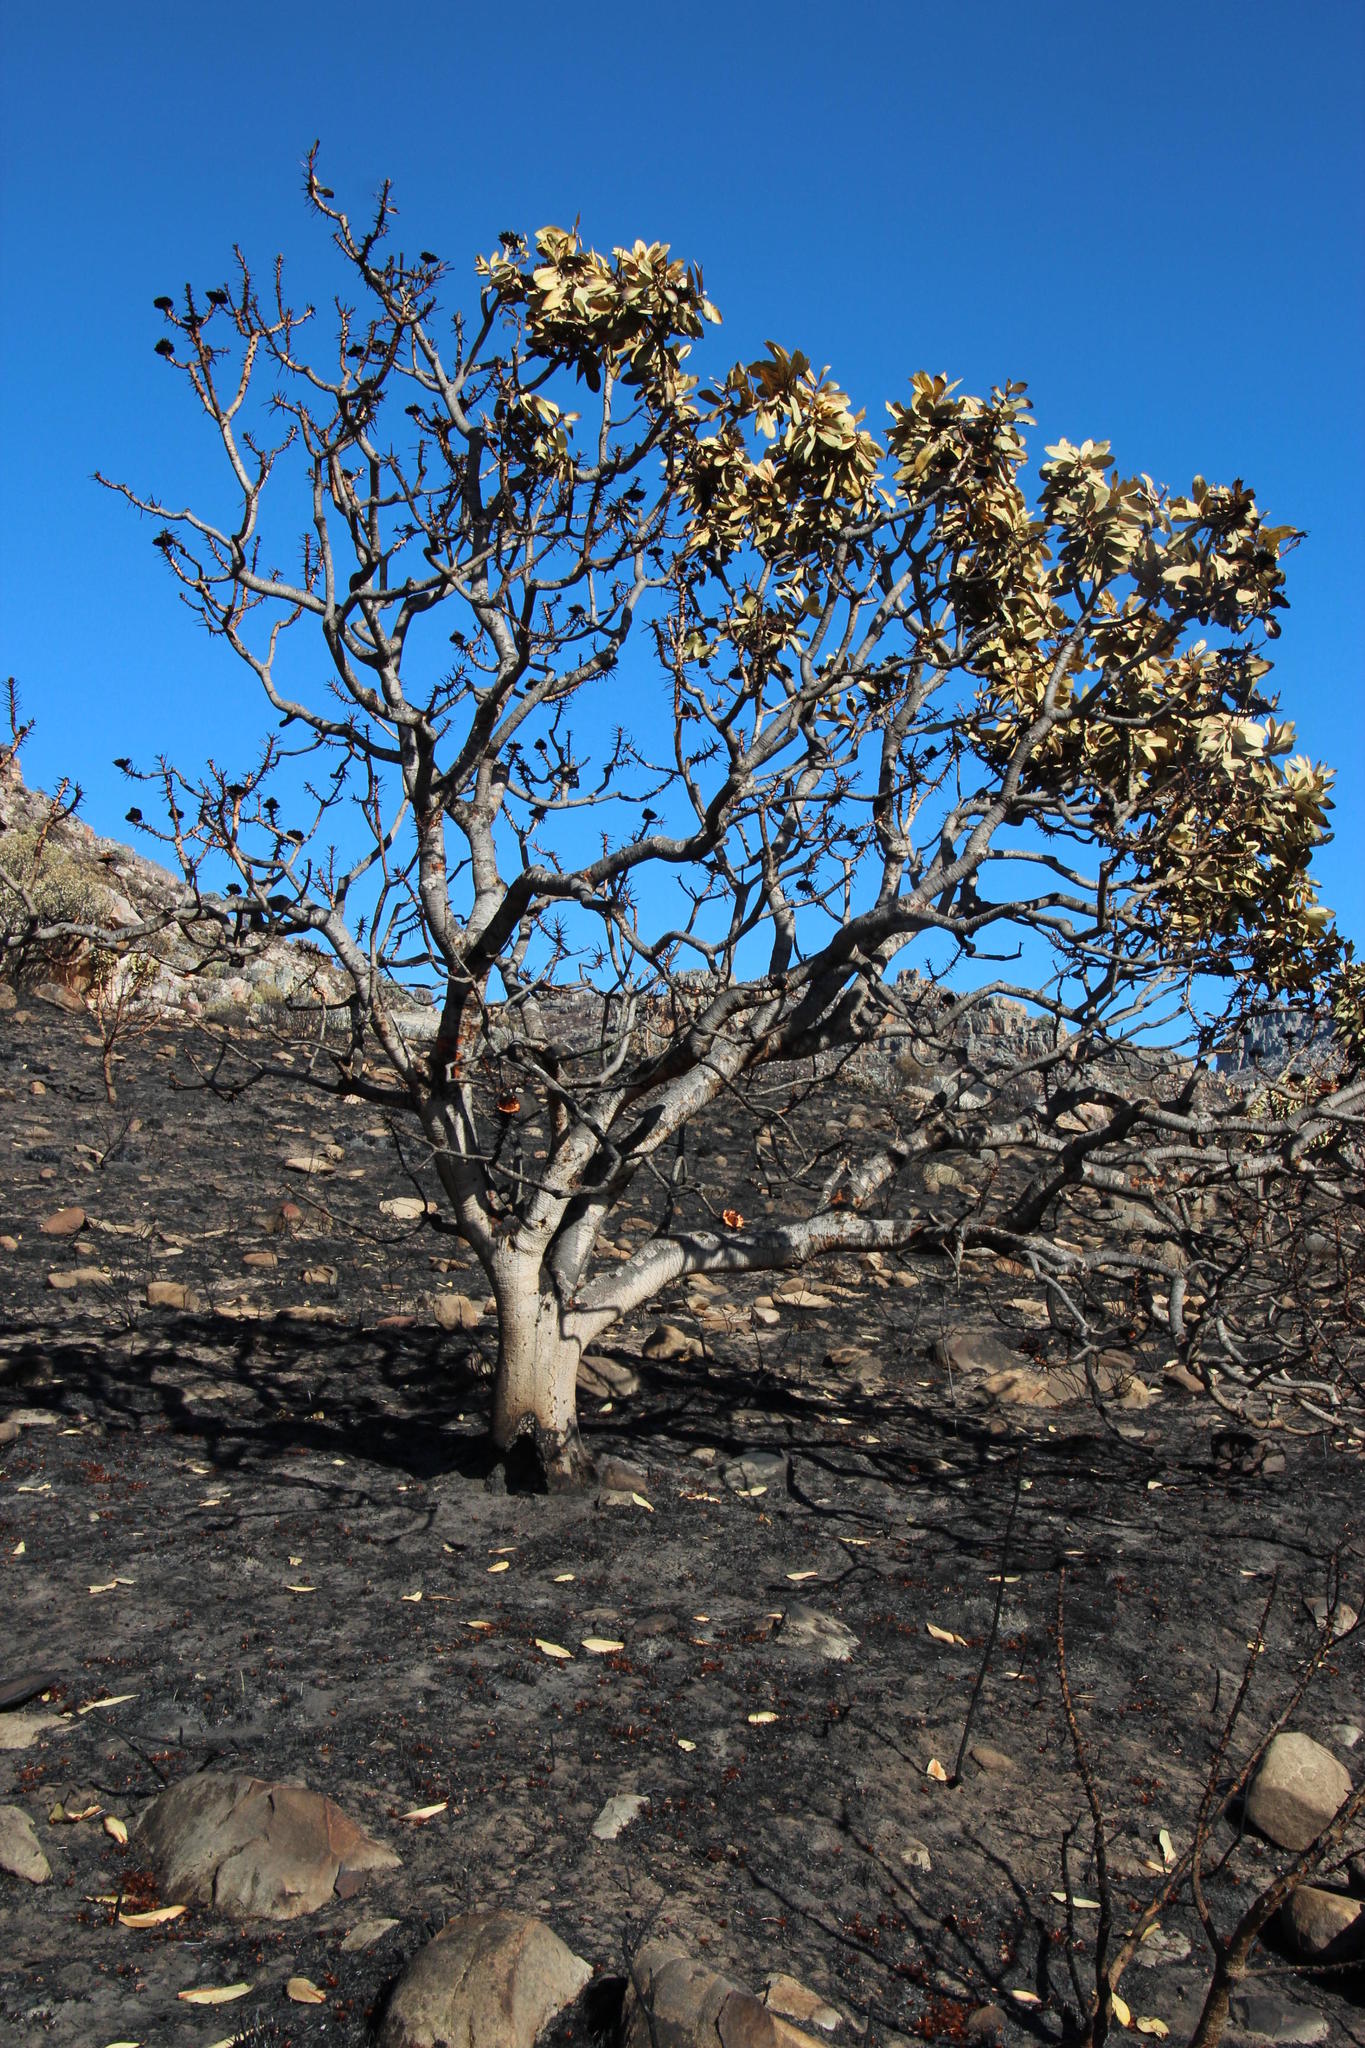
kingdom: Plantae
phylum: Tracheophyta
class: Magnoliopsida
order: Proteales
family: Proteaceae
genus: Protea
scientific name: Protea nitida
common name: Tree protea
